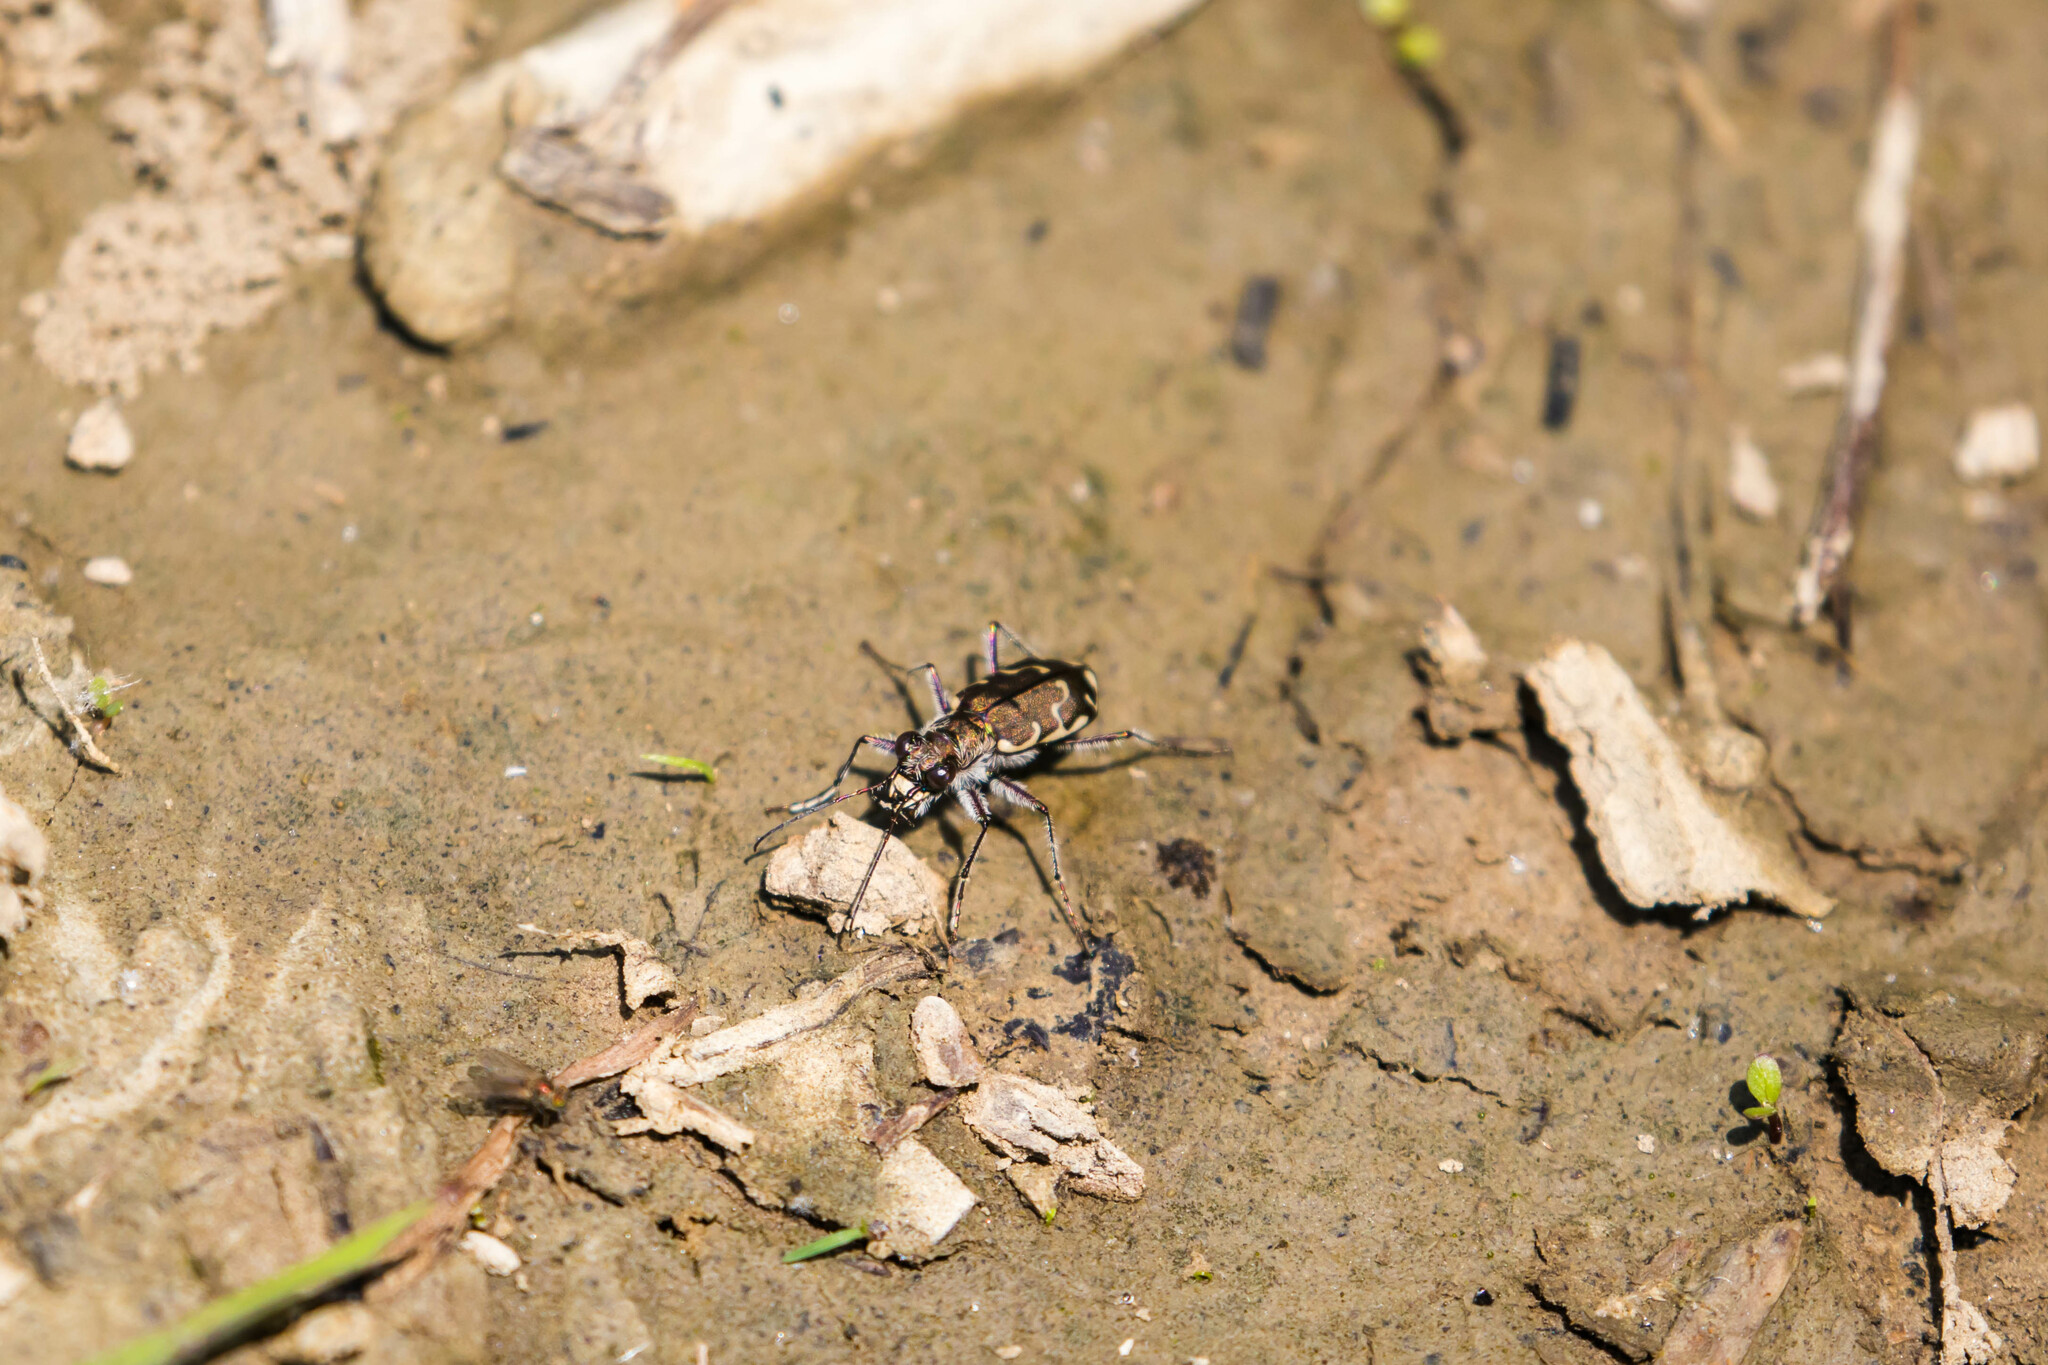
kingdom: Animalia
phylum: Arthropoda
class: Insecta
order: Coleoptera
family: Carabidae
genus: Cicindela
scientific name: Cicindela repanda
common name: Bronzed tiger beetle
